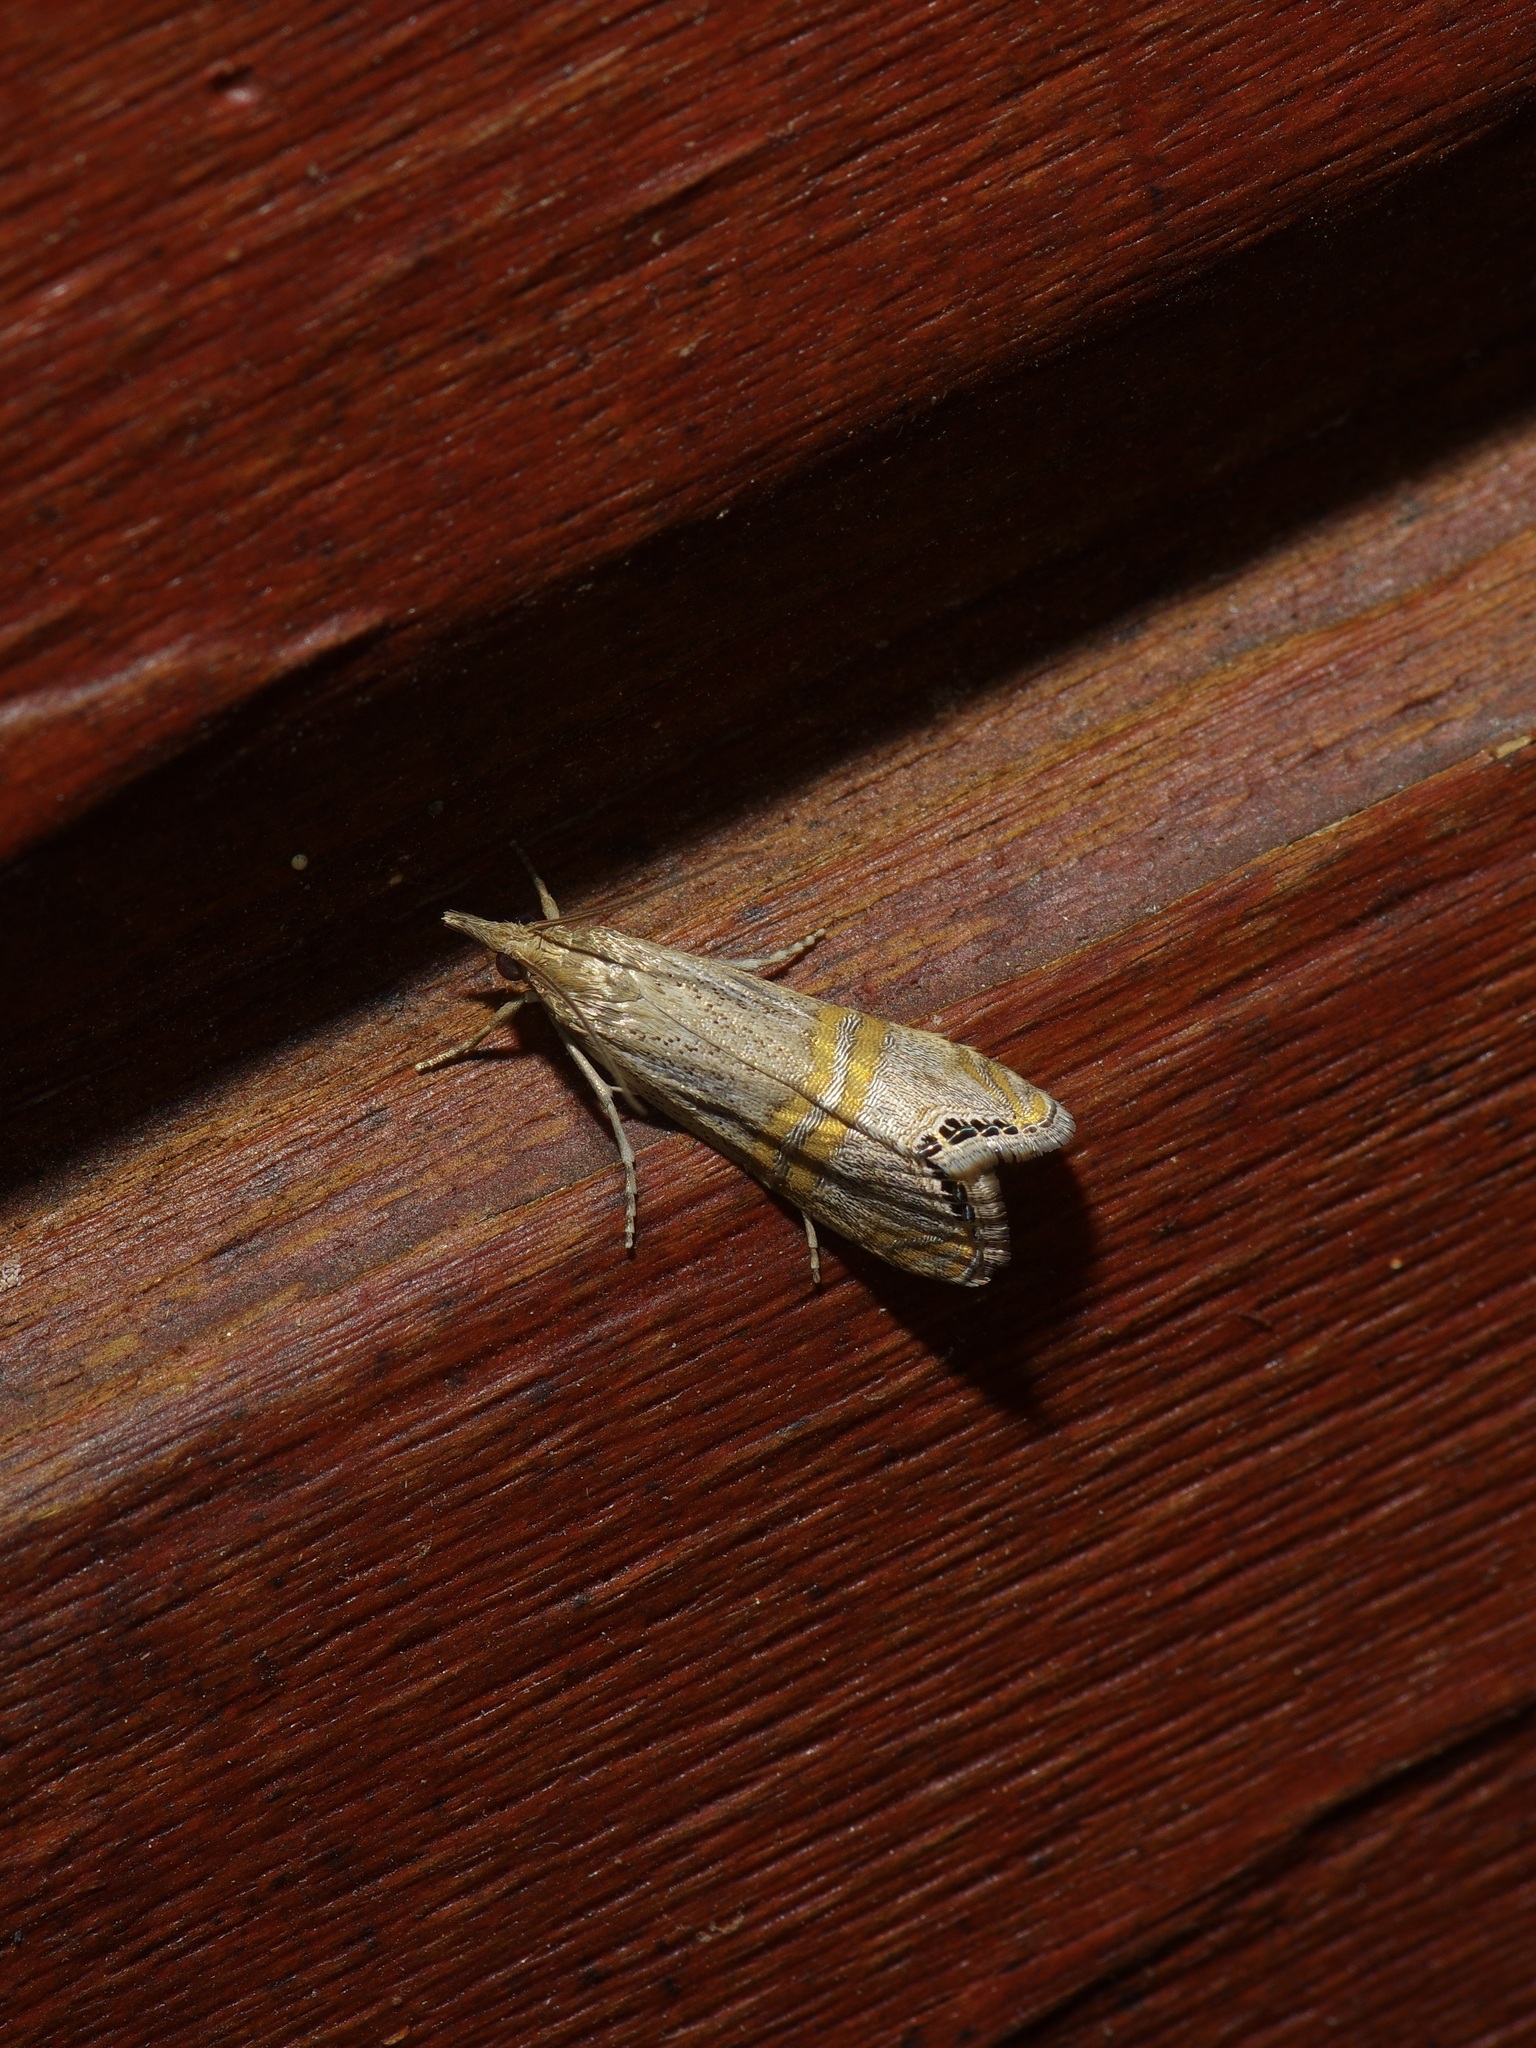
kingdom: Animalia
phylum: Arthropoda
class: Insecta
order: Lepidoptera
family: Crambidae
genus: Euchromius
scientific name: Euchromius ocellea
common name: Necklace veneer moth
